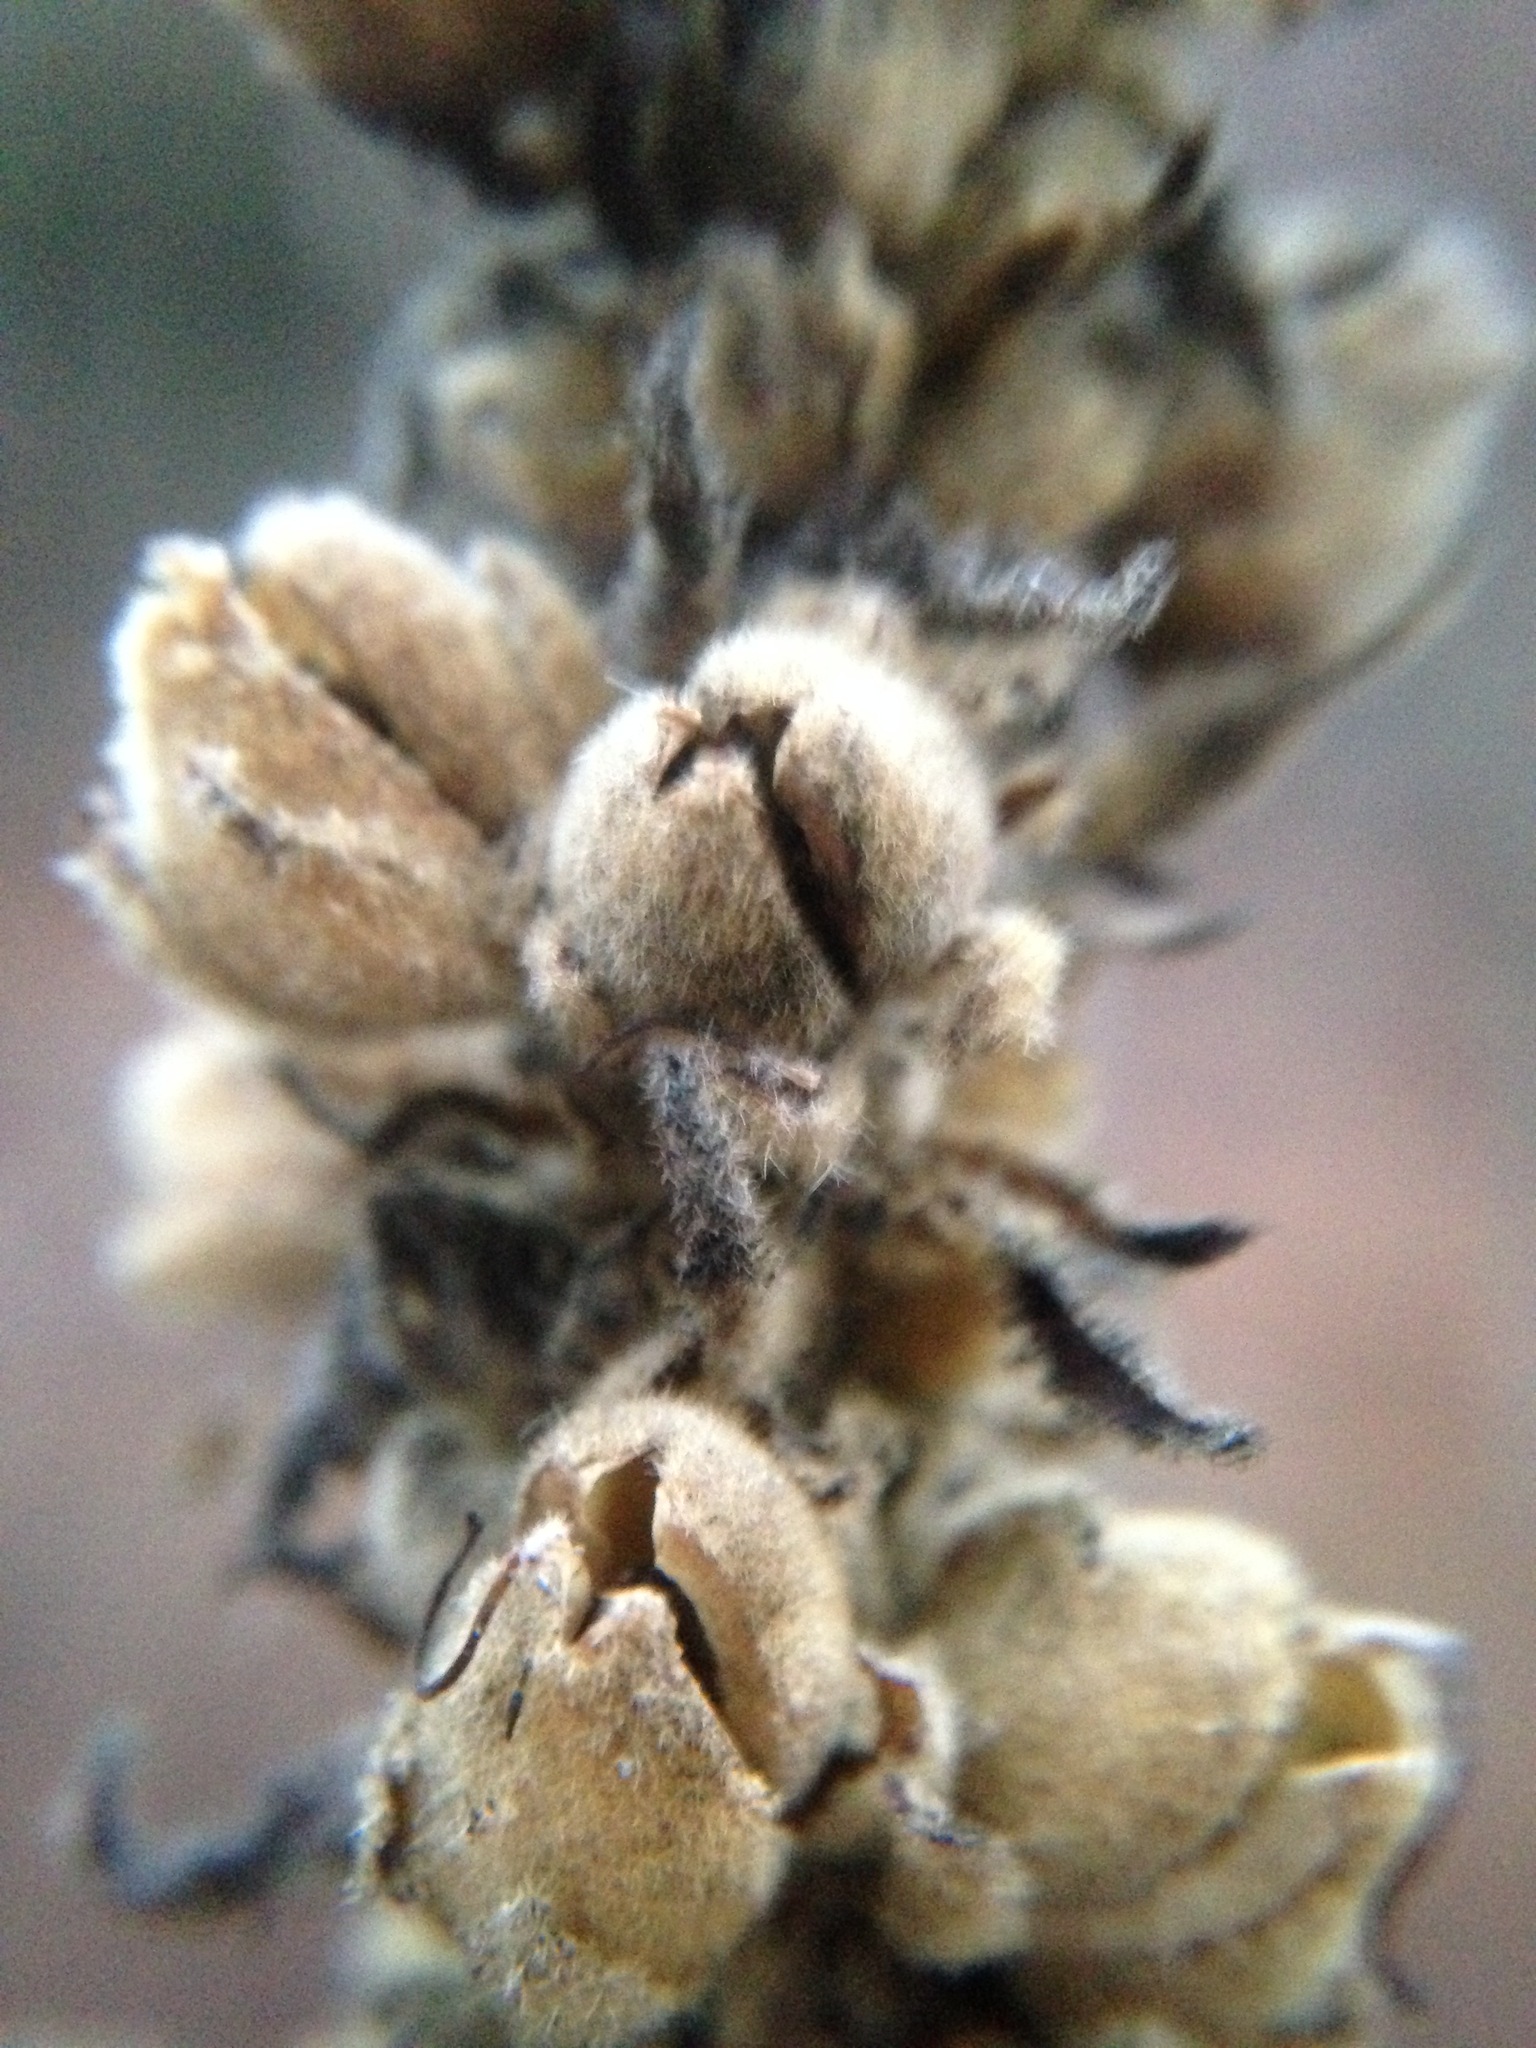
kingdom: Plantae
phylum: Tracheophyta
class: Magnoliopsida
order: Lamiales
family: Scrophulariaceae
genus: Verbascum
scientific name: Verbascum thapsus
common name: Common mullein
